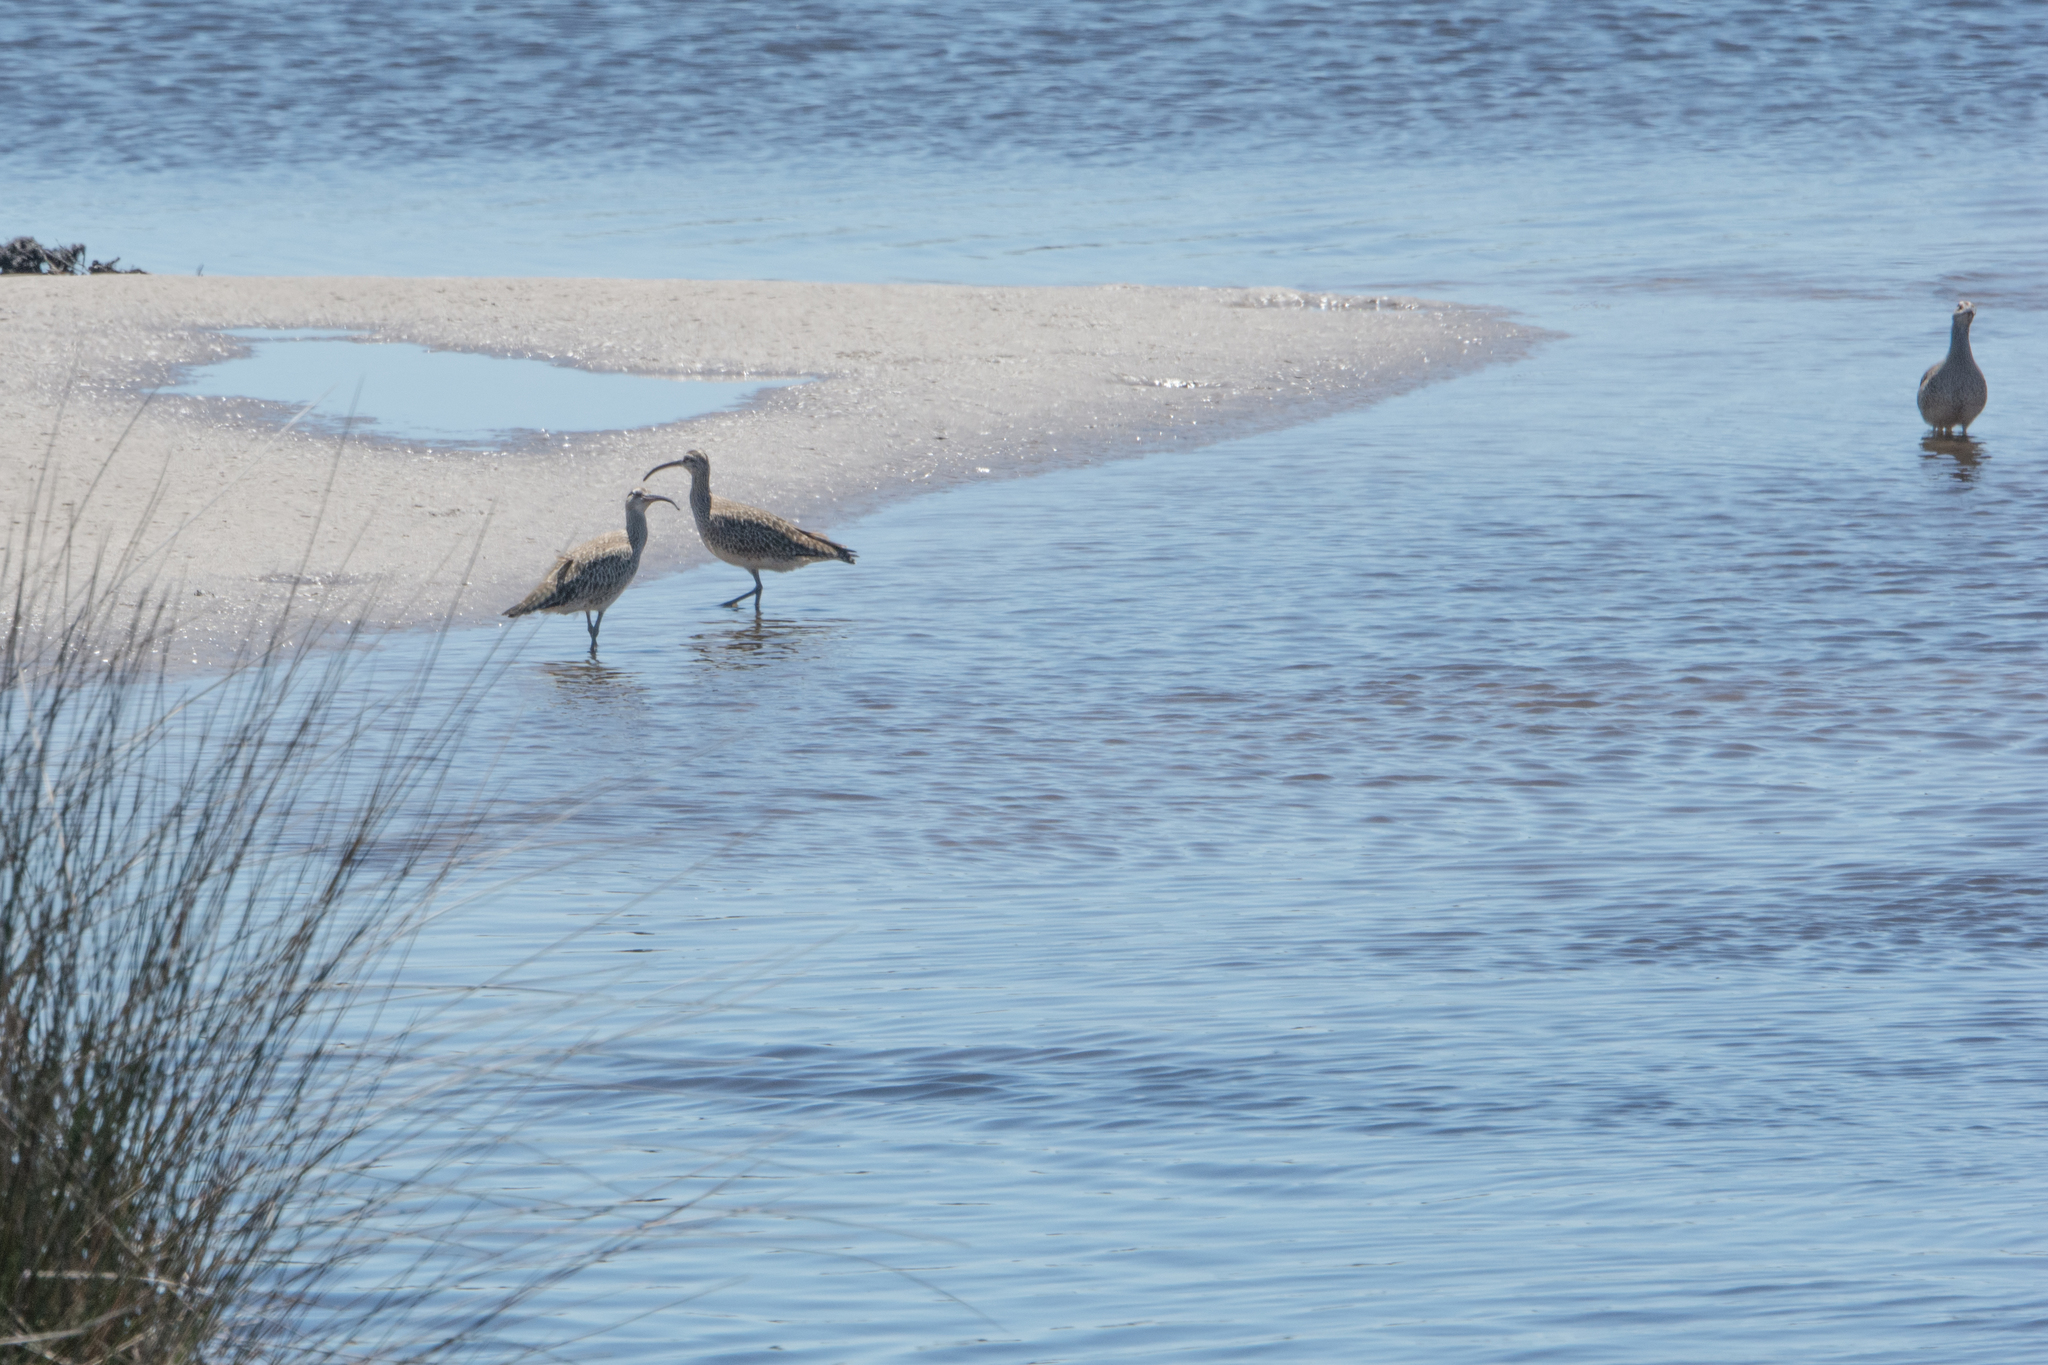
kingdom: Animalia
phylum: Chordata
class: Aves
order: Charadriiformes
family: Scolopacidae
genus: Numenius
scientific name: Numenius phaeopus
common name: Whimbrel
